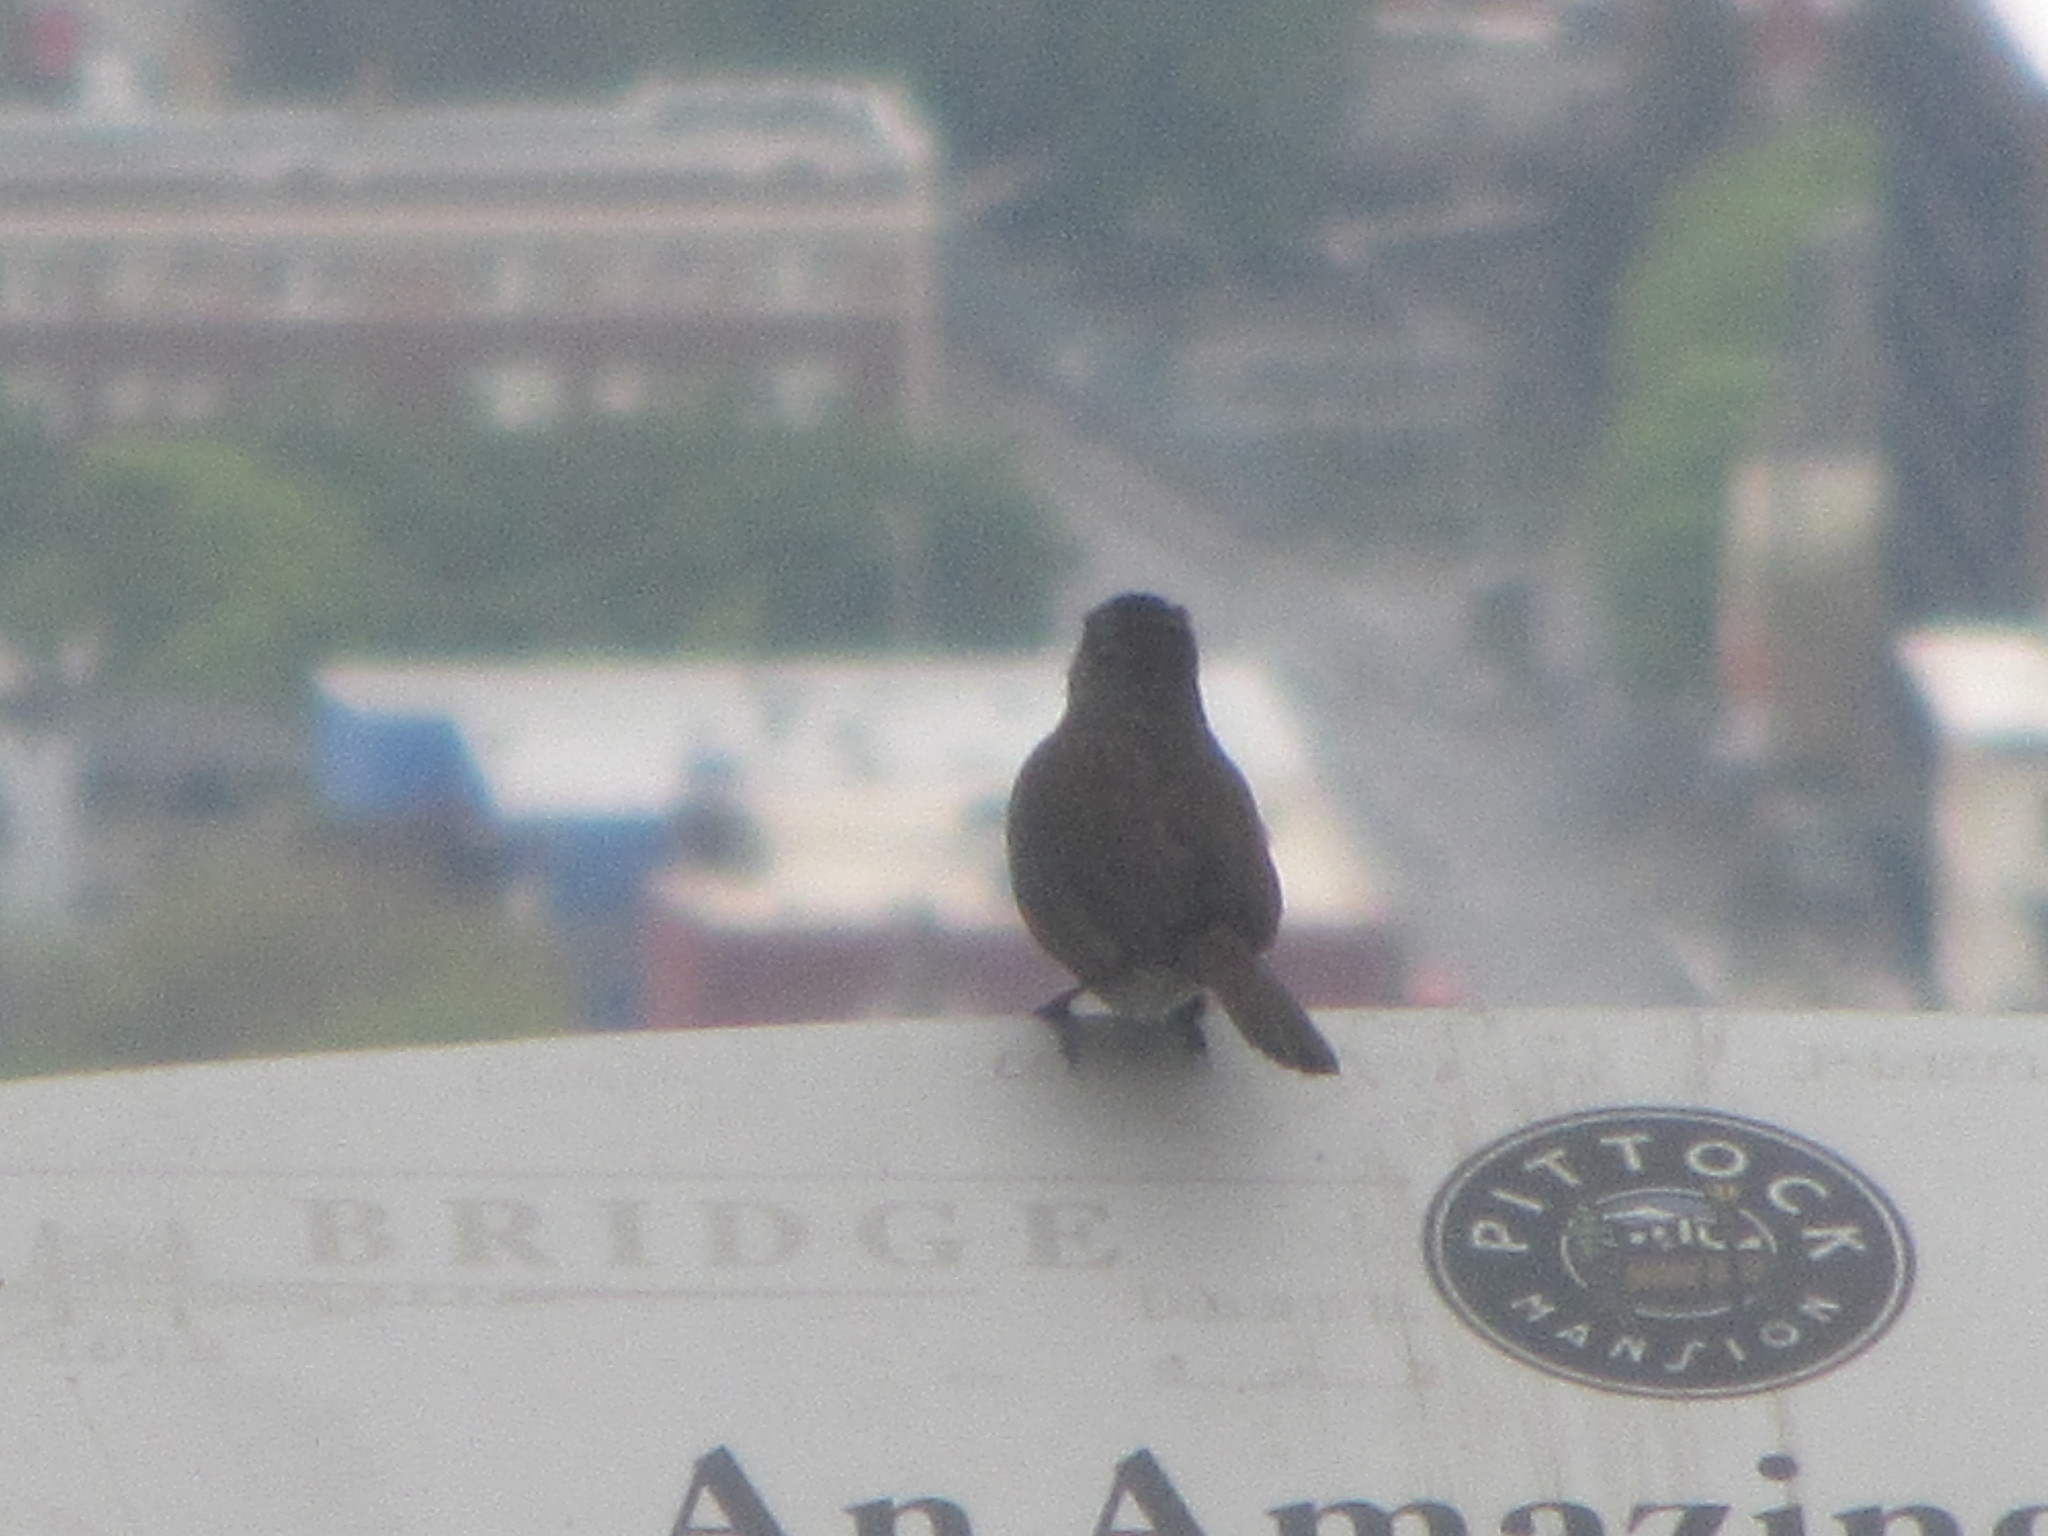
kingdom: Animalia
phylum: Chordata
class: Aves
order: Passeriformes
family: Passerellidae
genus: Melospiza
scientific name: Melospiza melodia
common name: Song sparrow
